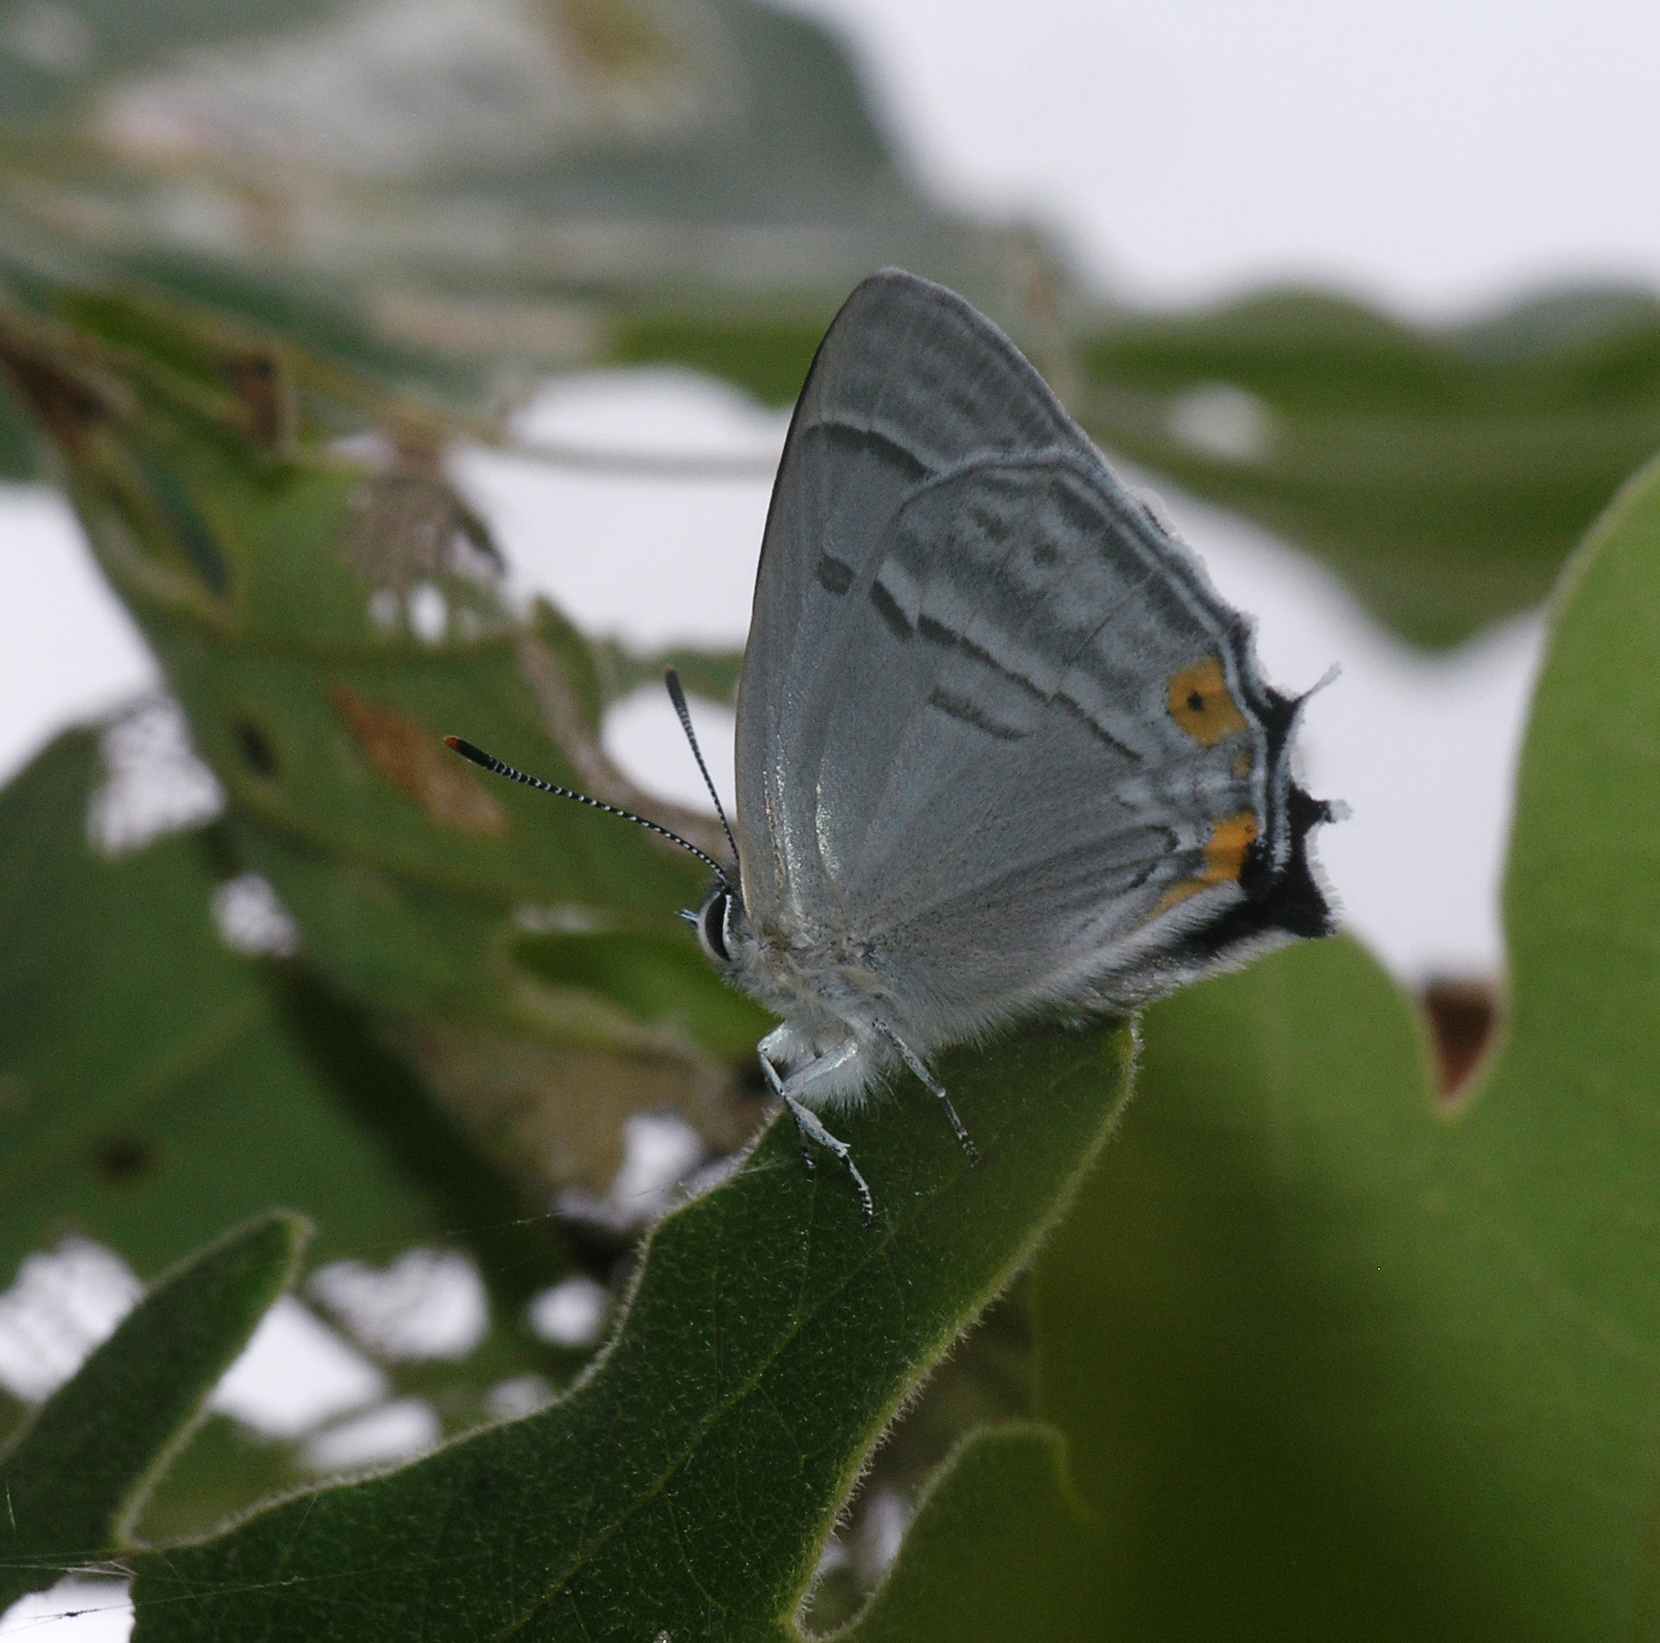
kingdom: Animalia
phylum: Arthropoda
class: Insecta
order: Lepidoptera
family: Lycaenidae
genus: Favonius
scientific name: Favonius saphirina
